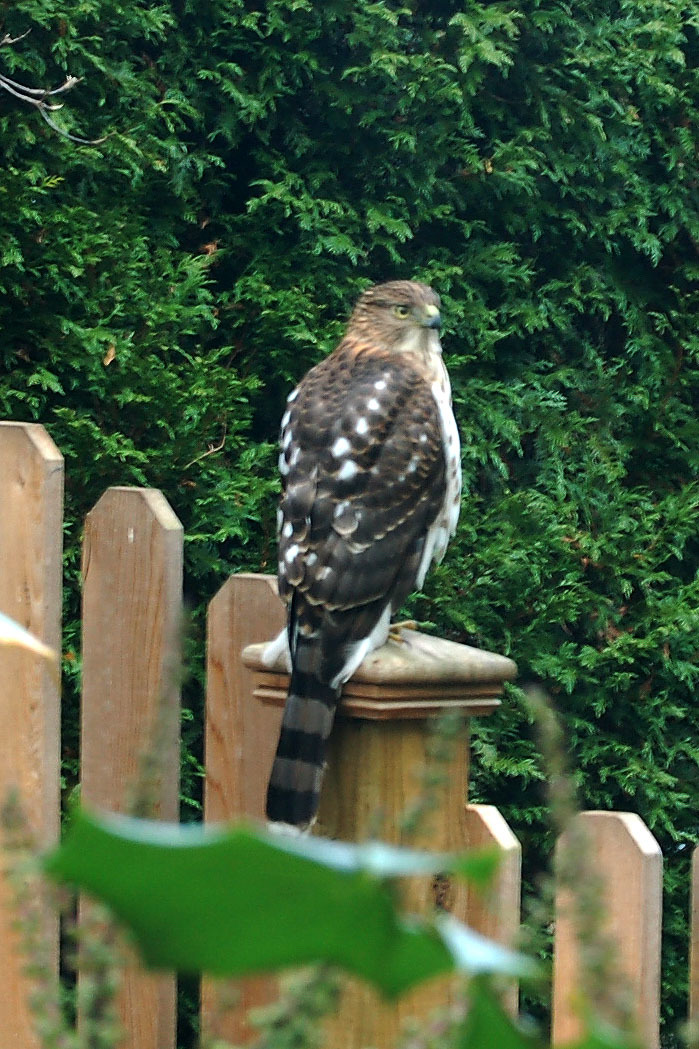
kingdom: Animalia
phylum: Chordata
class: Aves
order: Accipitriformes
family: Accipitridae
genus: Accipiter
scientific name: Accipiter cooperii
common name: Cooper's hawk
